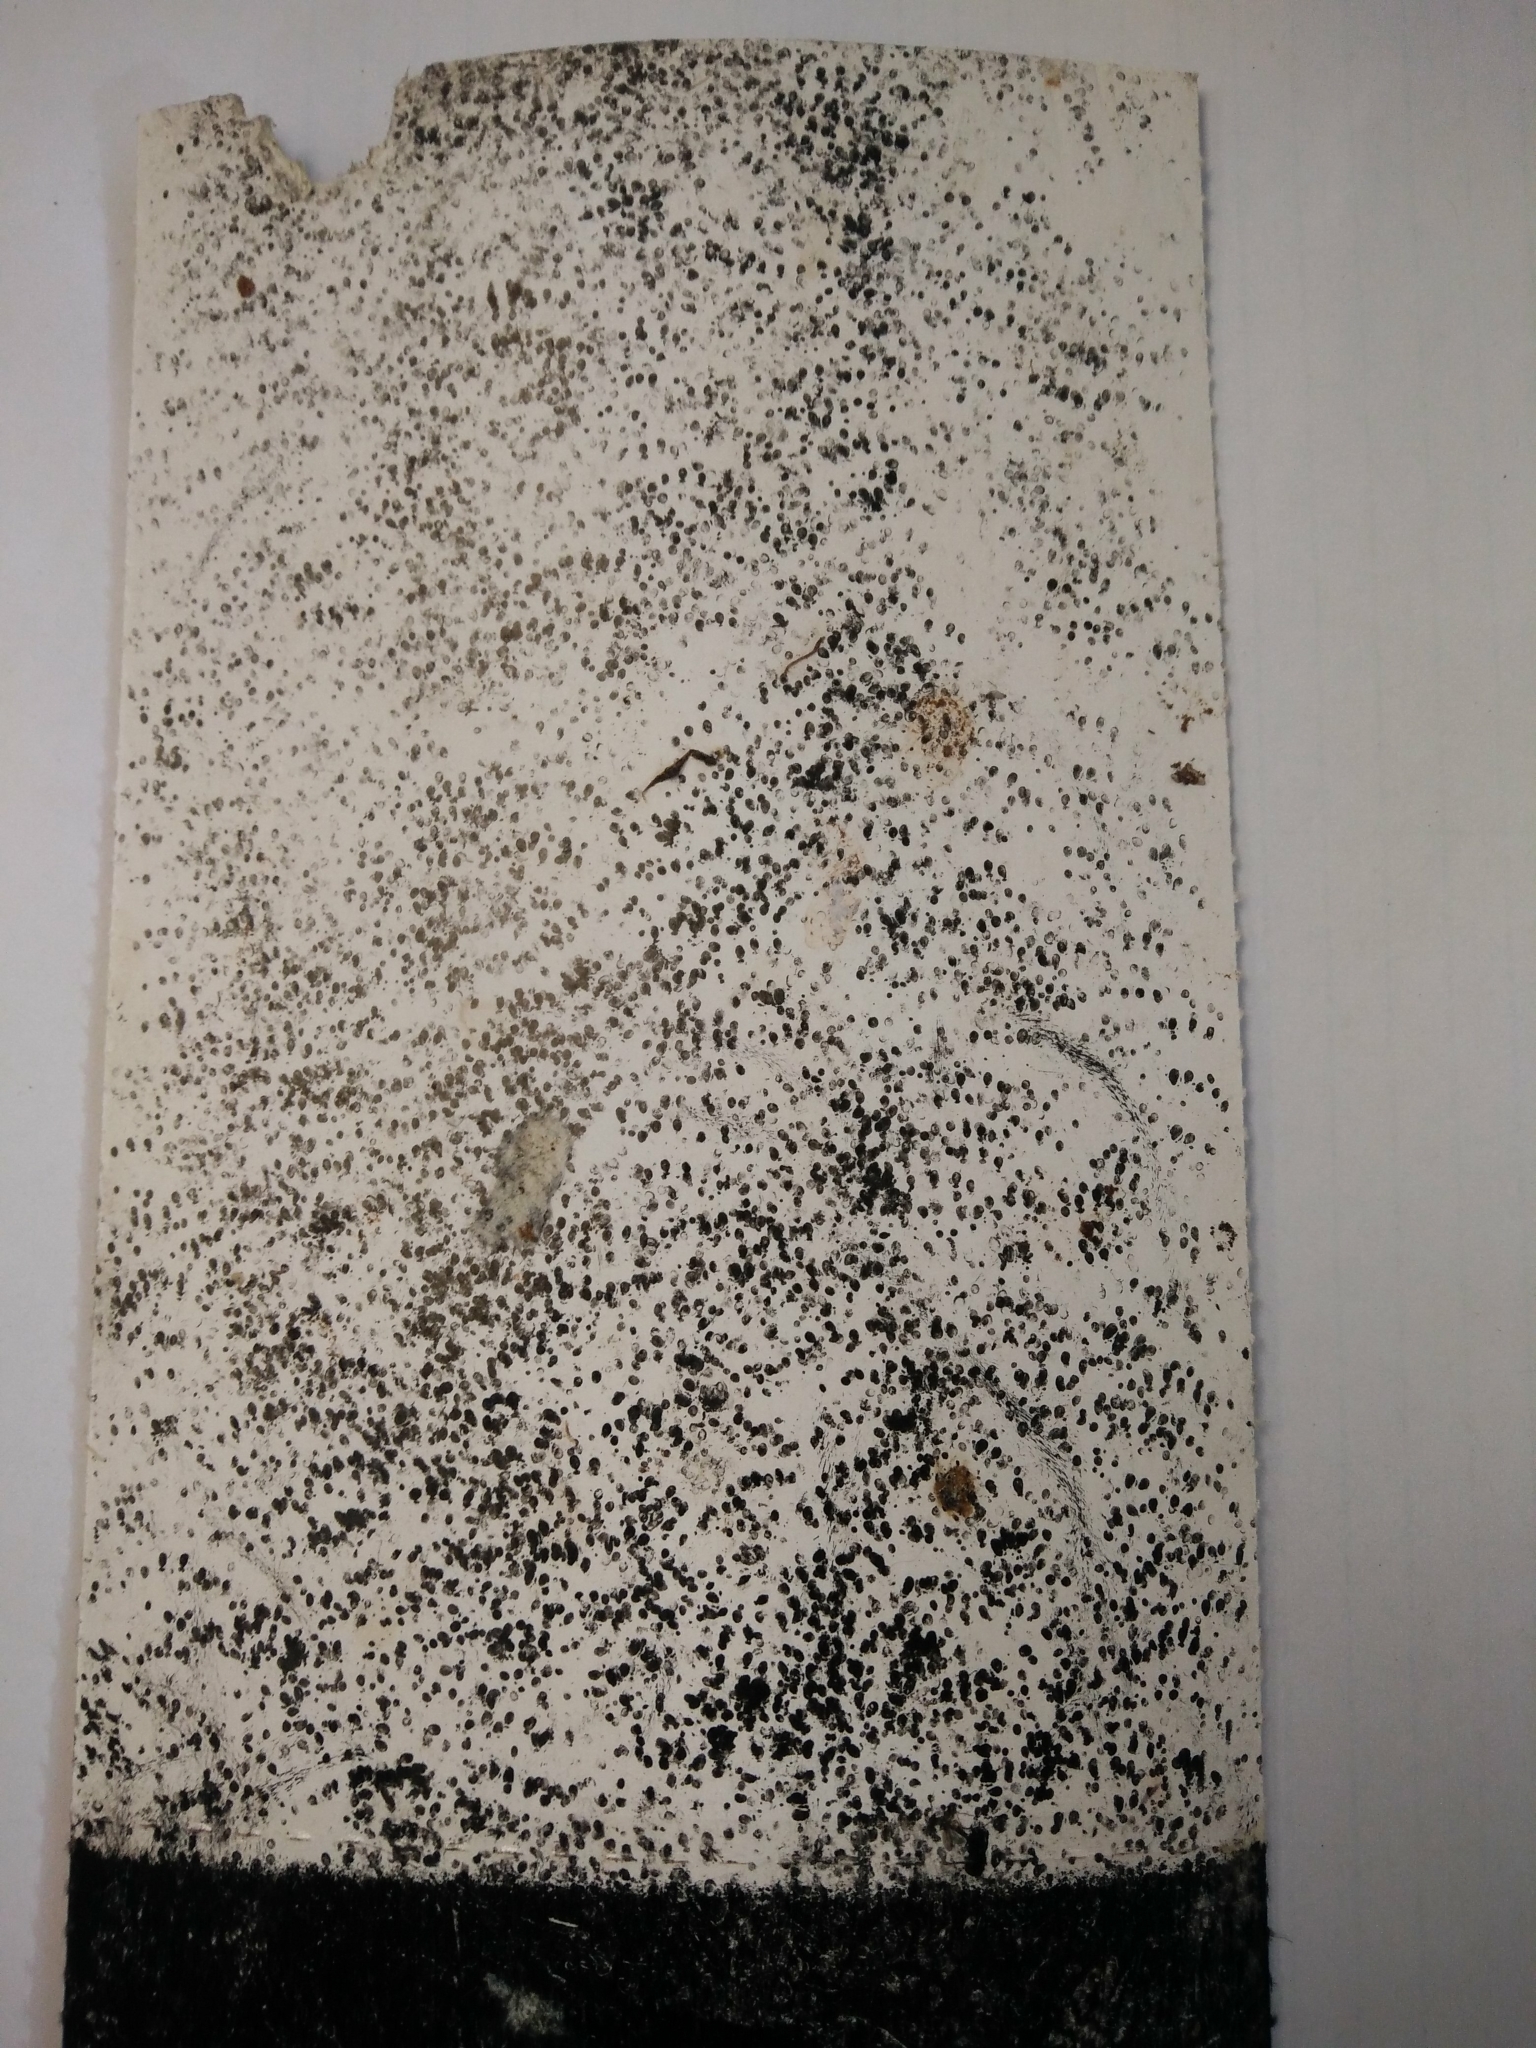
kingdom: Animalia
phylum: Chordata
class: Mammalia
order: Rodentia
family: Muridae
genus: Mus
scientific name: Mus musculus
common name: House mouse
